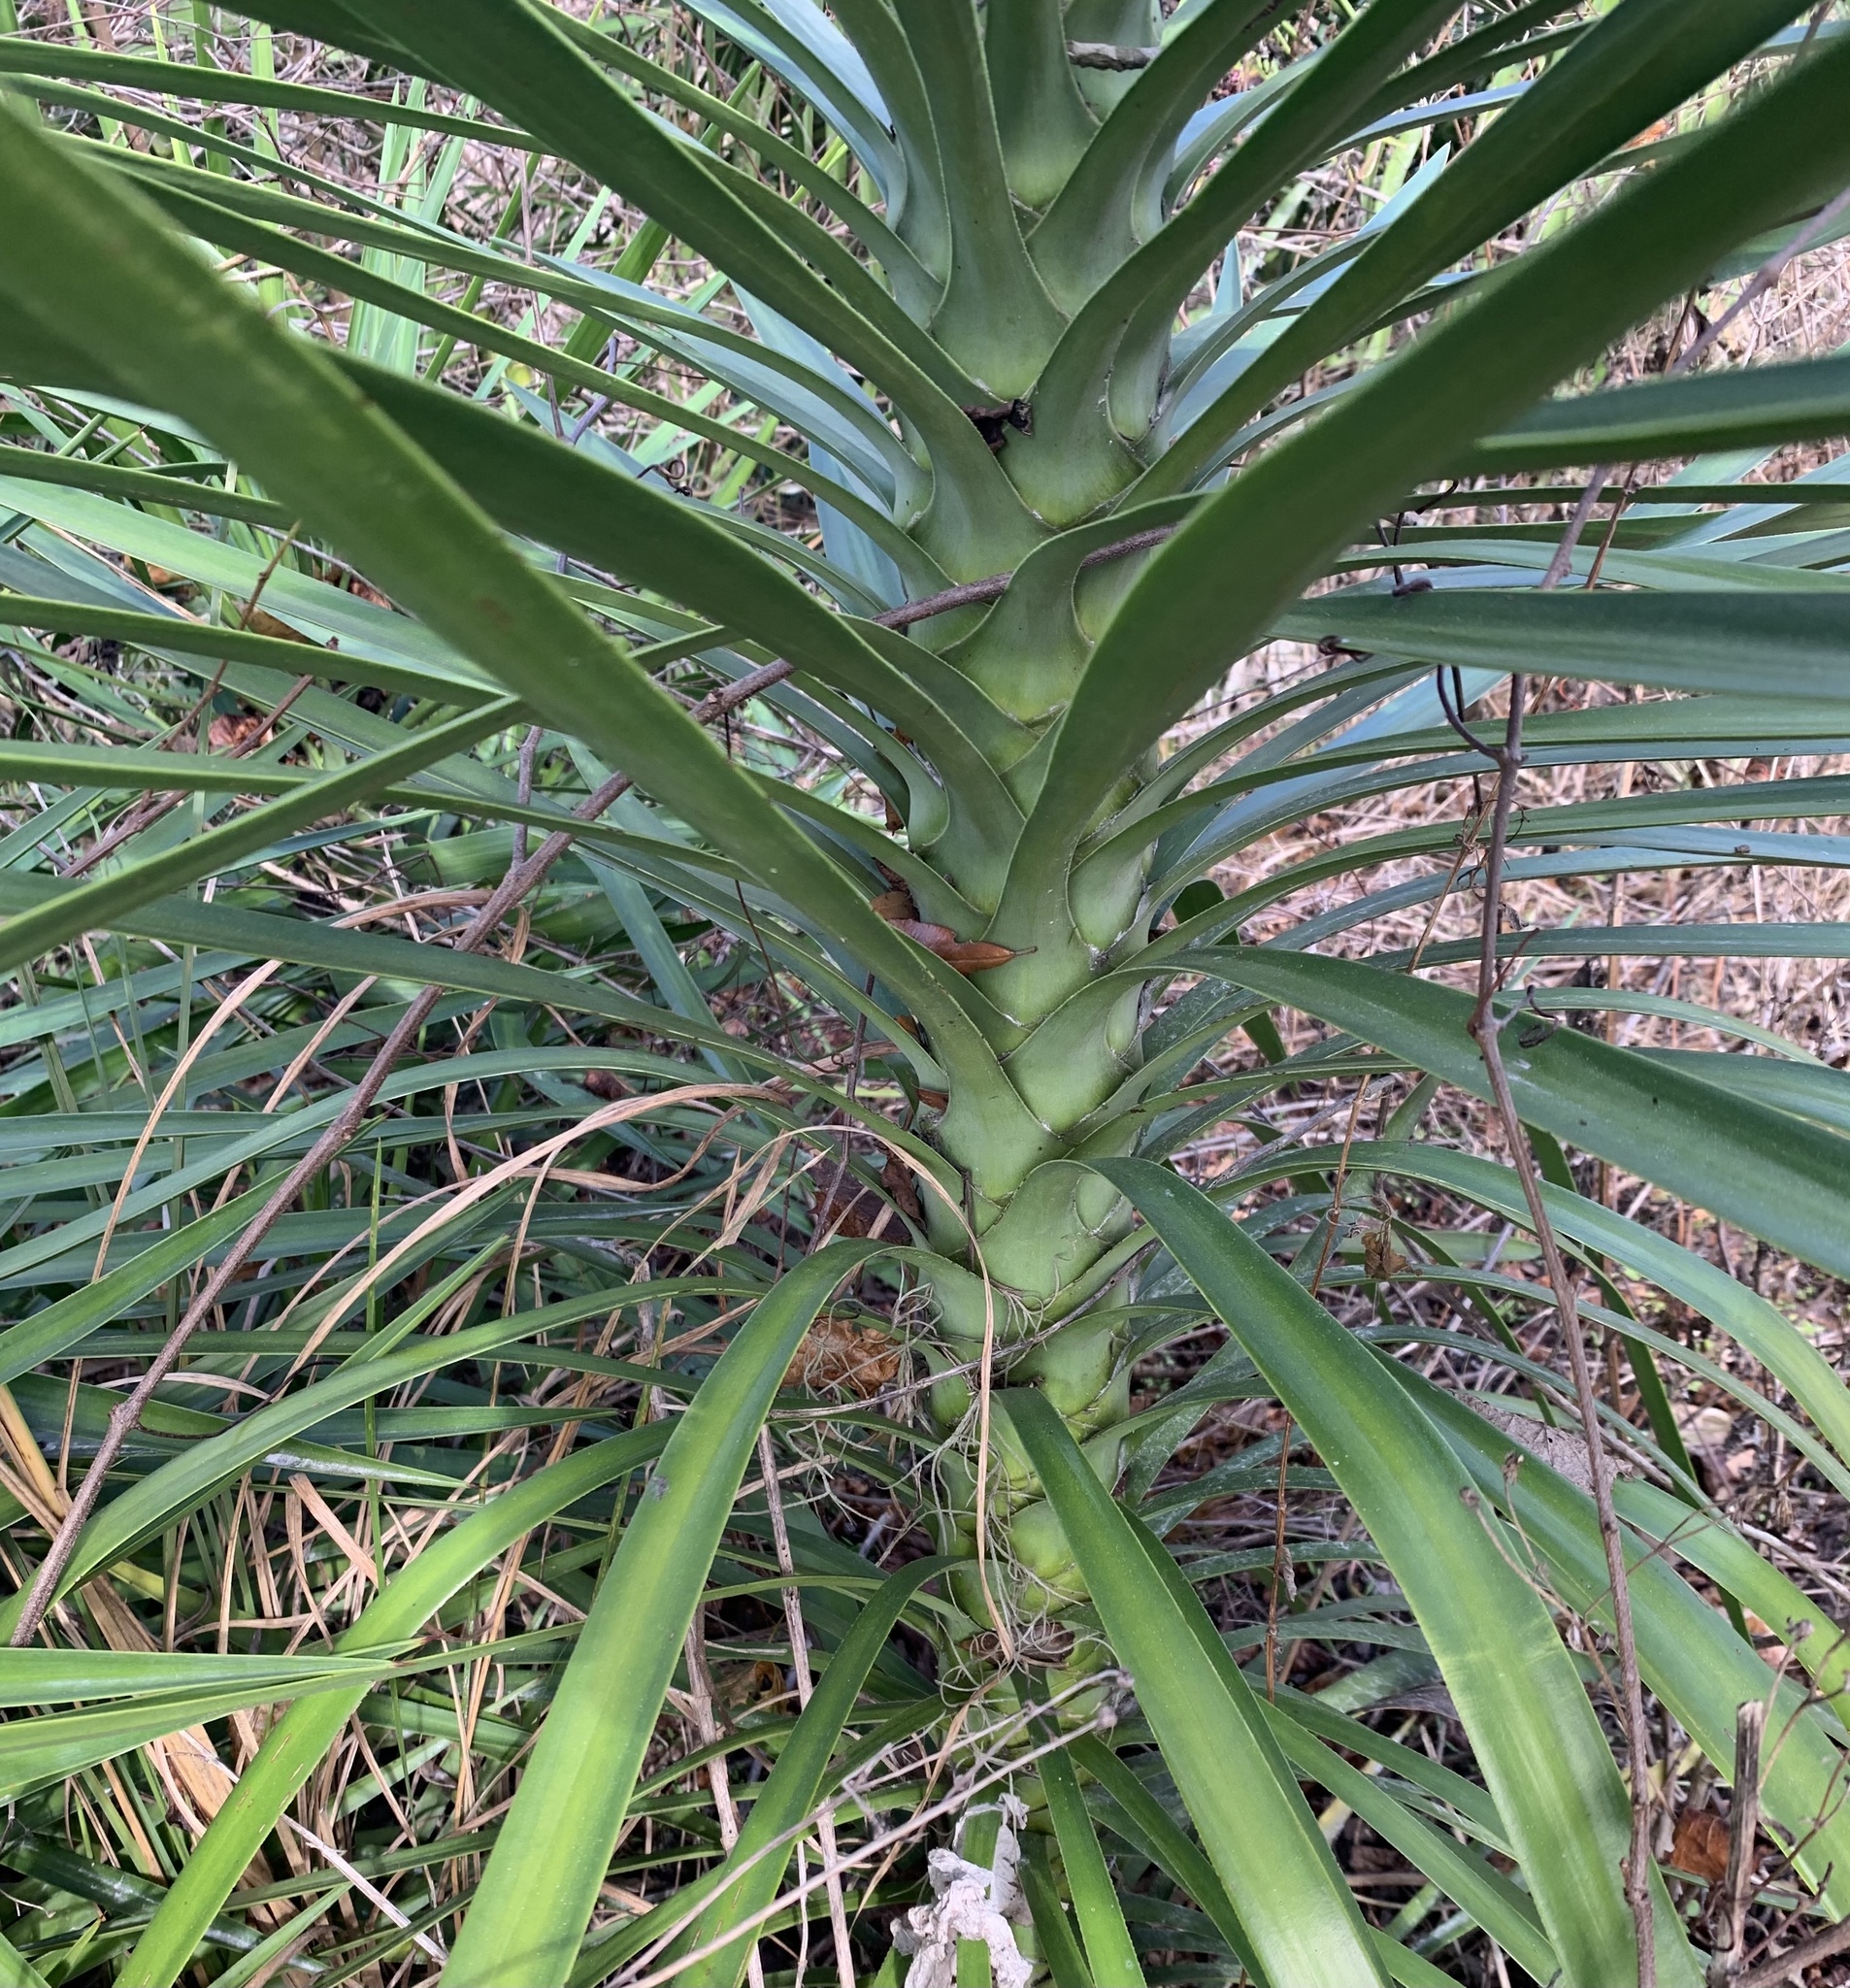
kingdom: Plantae
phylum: Tracheophyta
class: Liliopsida
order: Asparagales
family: Asparagaceae
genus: Yucca
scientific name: Yucca aloifolia
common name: Aloe yucca
